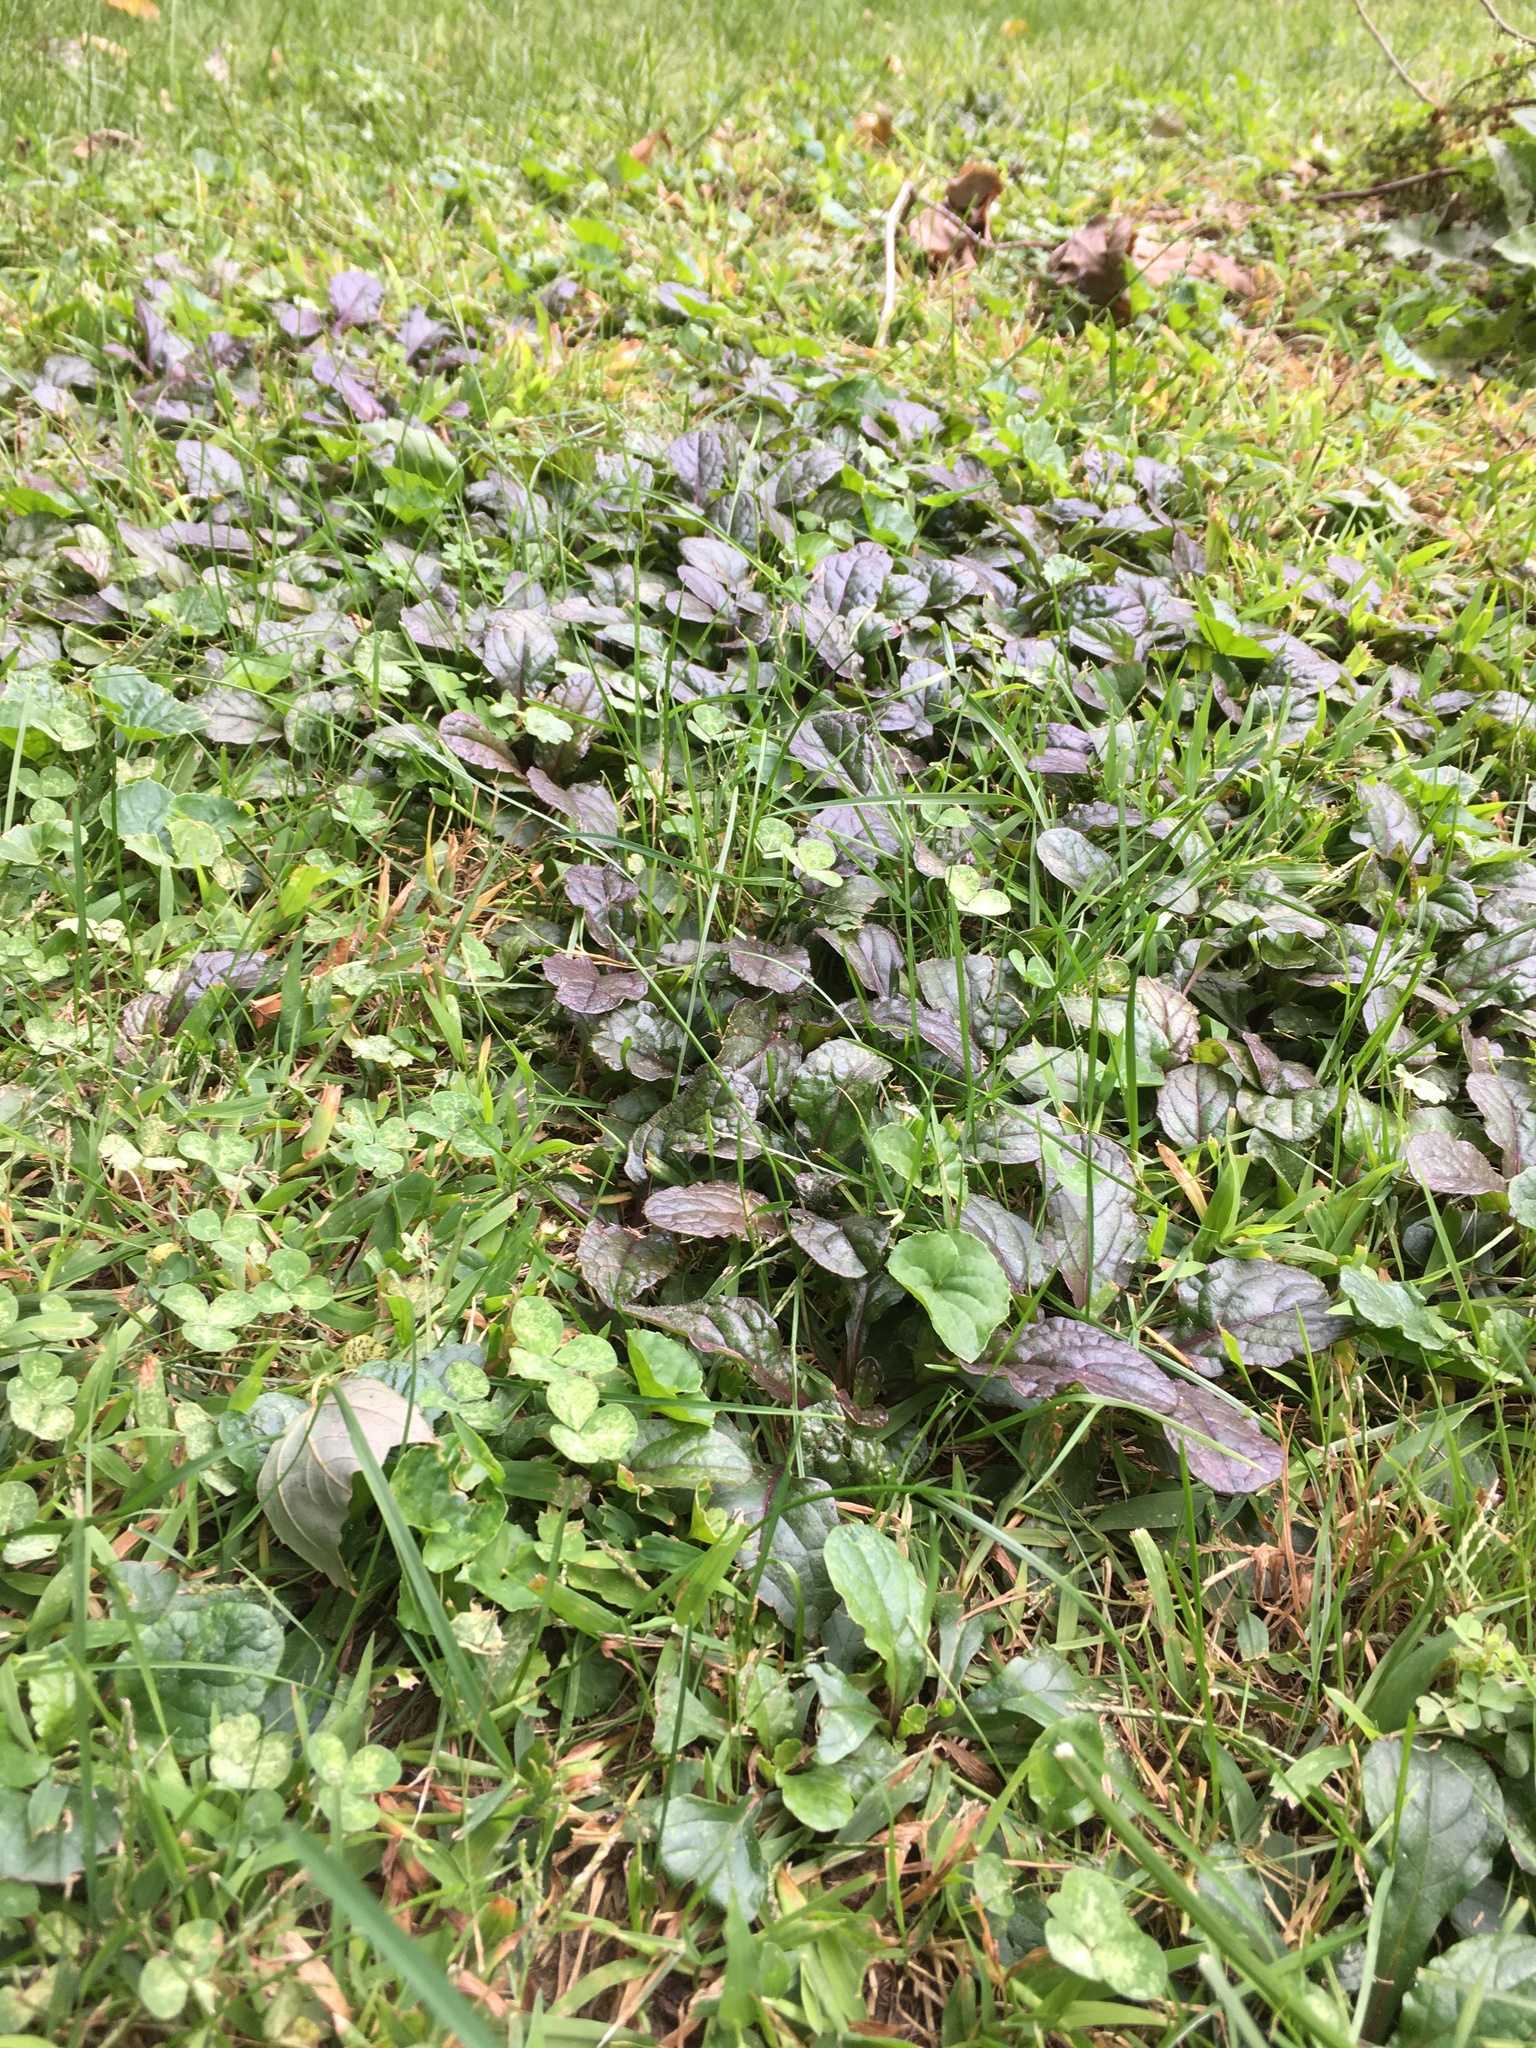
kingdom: Plantae
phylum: Tracheophyta
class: Magnoliopsida
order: Lamiales
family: Lamiaceae
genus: Ajuga
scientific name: Ajuga reptans
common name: Bugle
